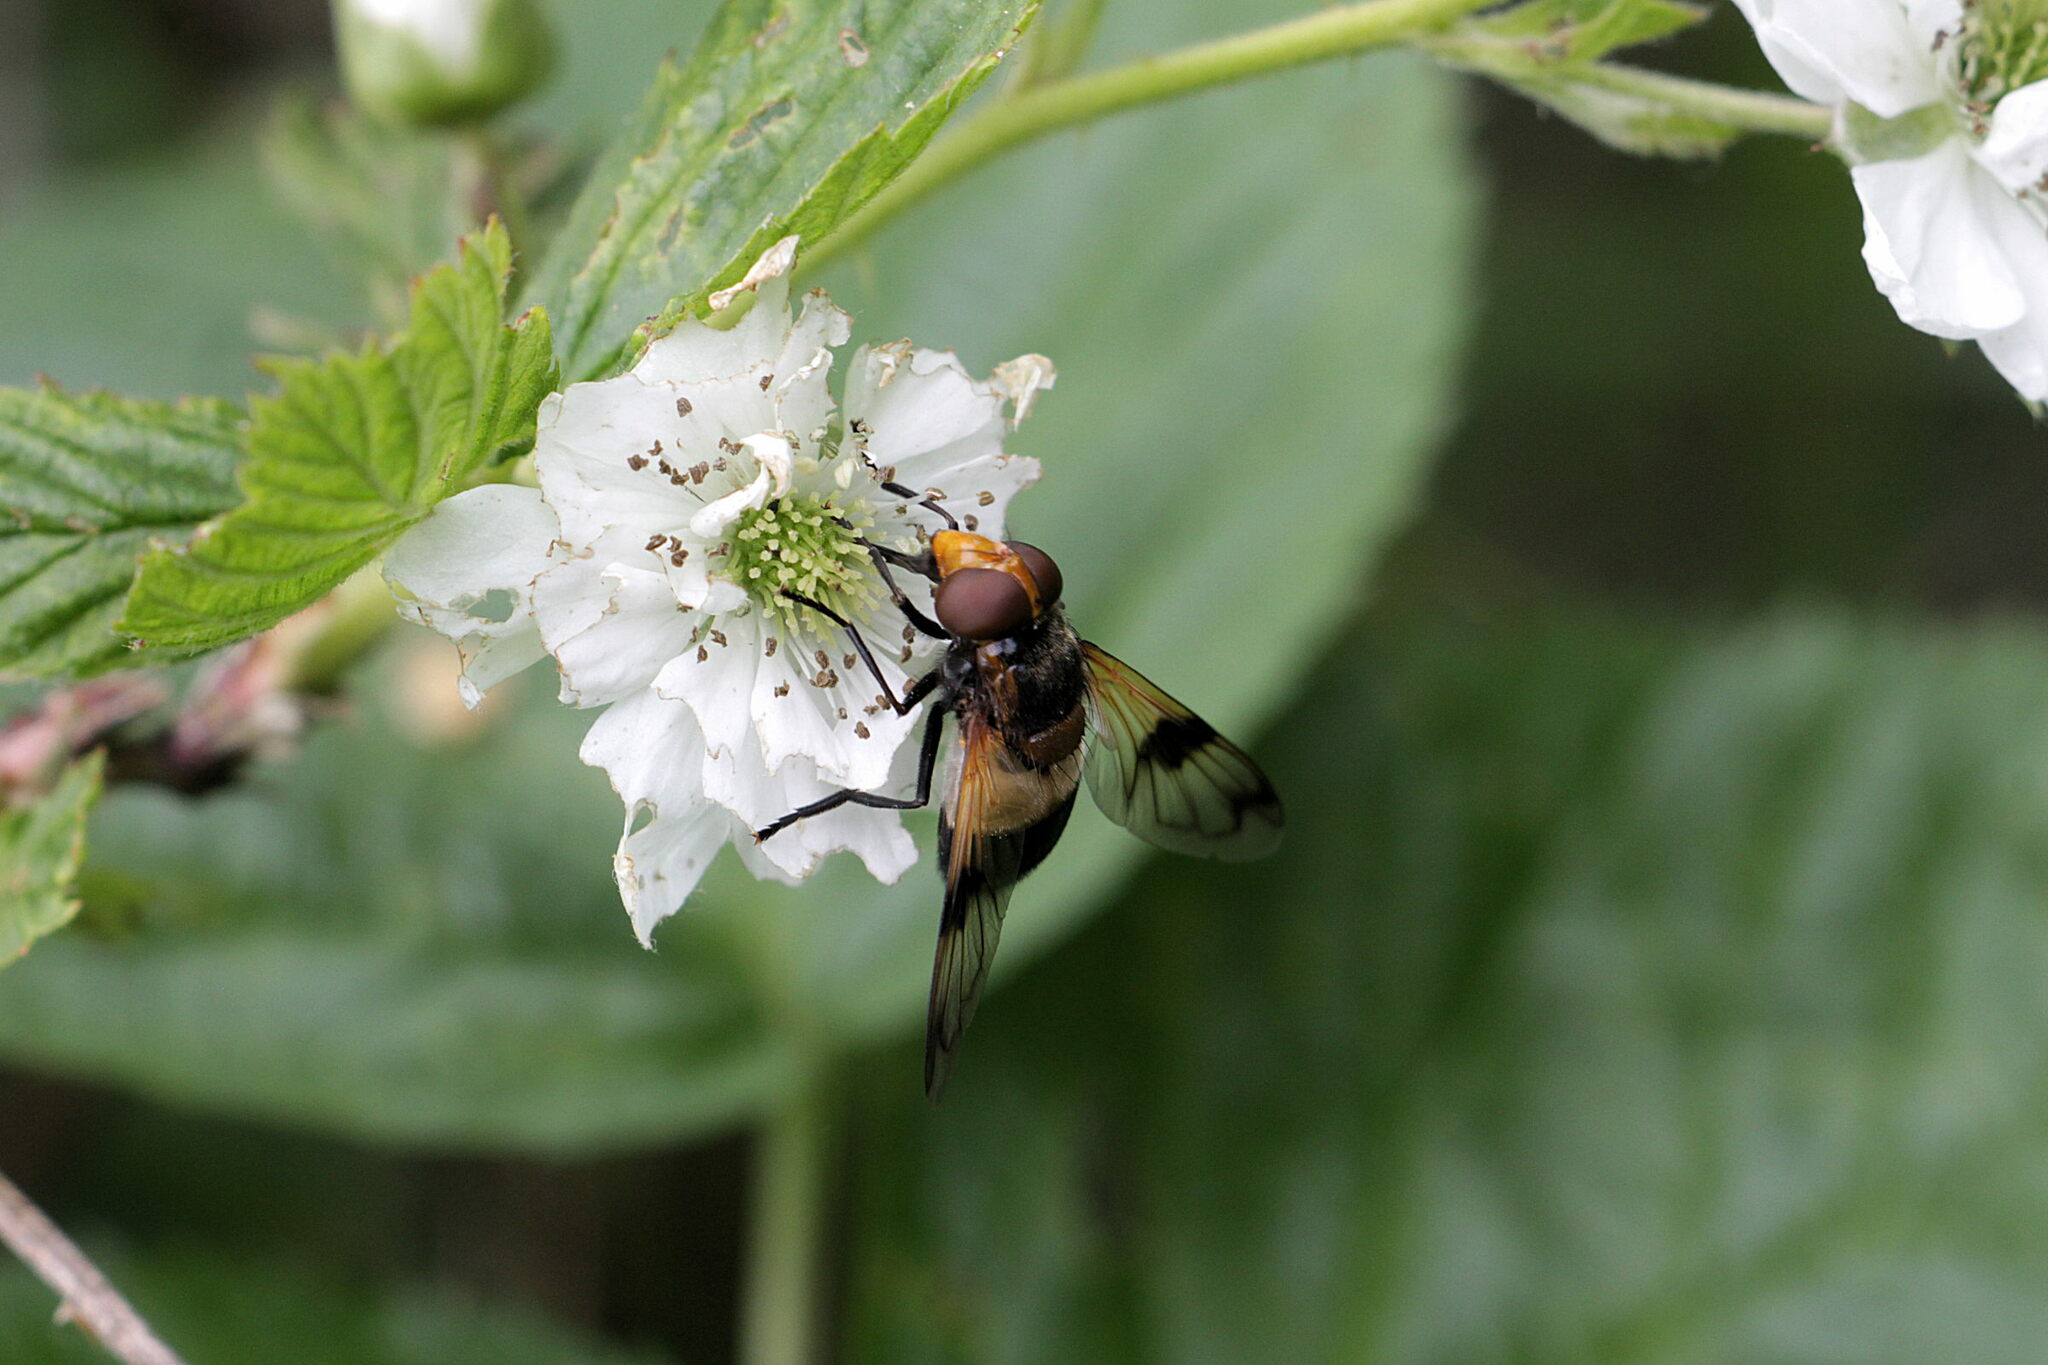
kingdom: Animalia
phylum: Arthropoda
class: Insecta
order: Diptera
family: Syrphidae
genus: Volucella
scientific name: Volucella pellucens
